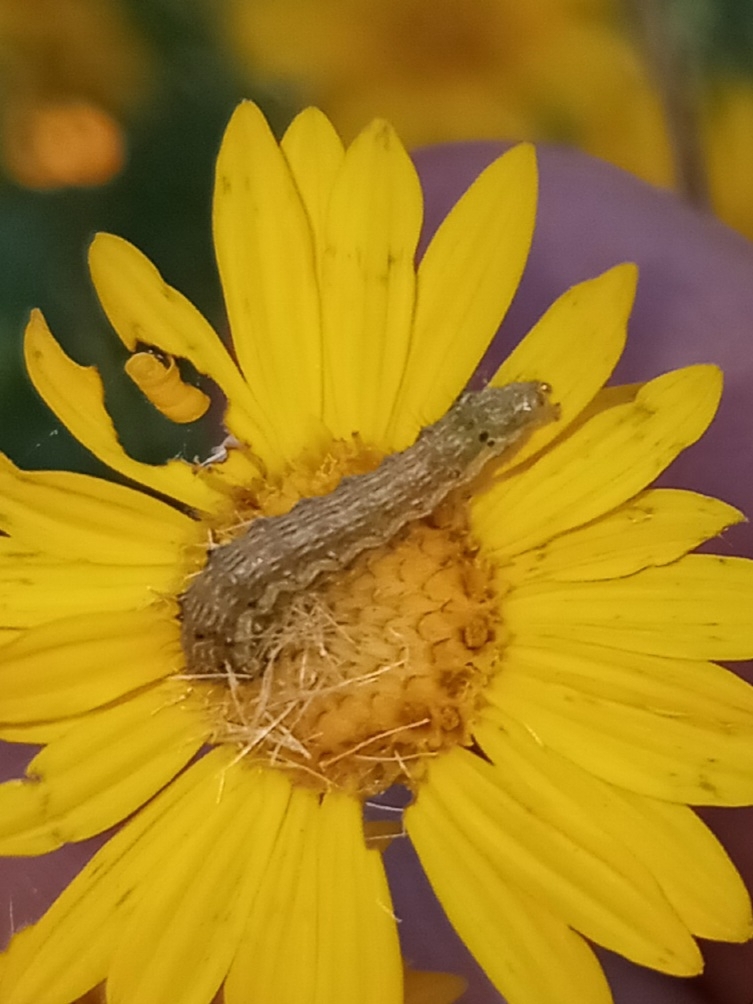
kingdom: Animalia
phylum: Arthropoda
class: Insecta
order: Lepidoptera
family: Noctuidae
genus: Chloridea
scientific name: Chloridea virescens
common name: Tobacco budworm
